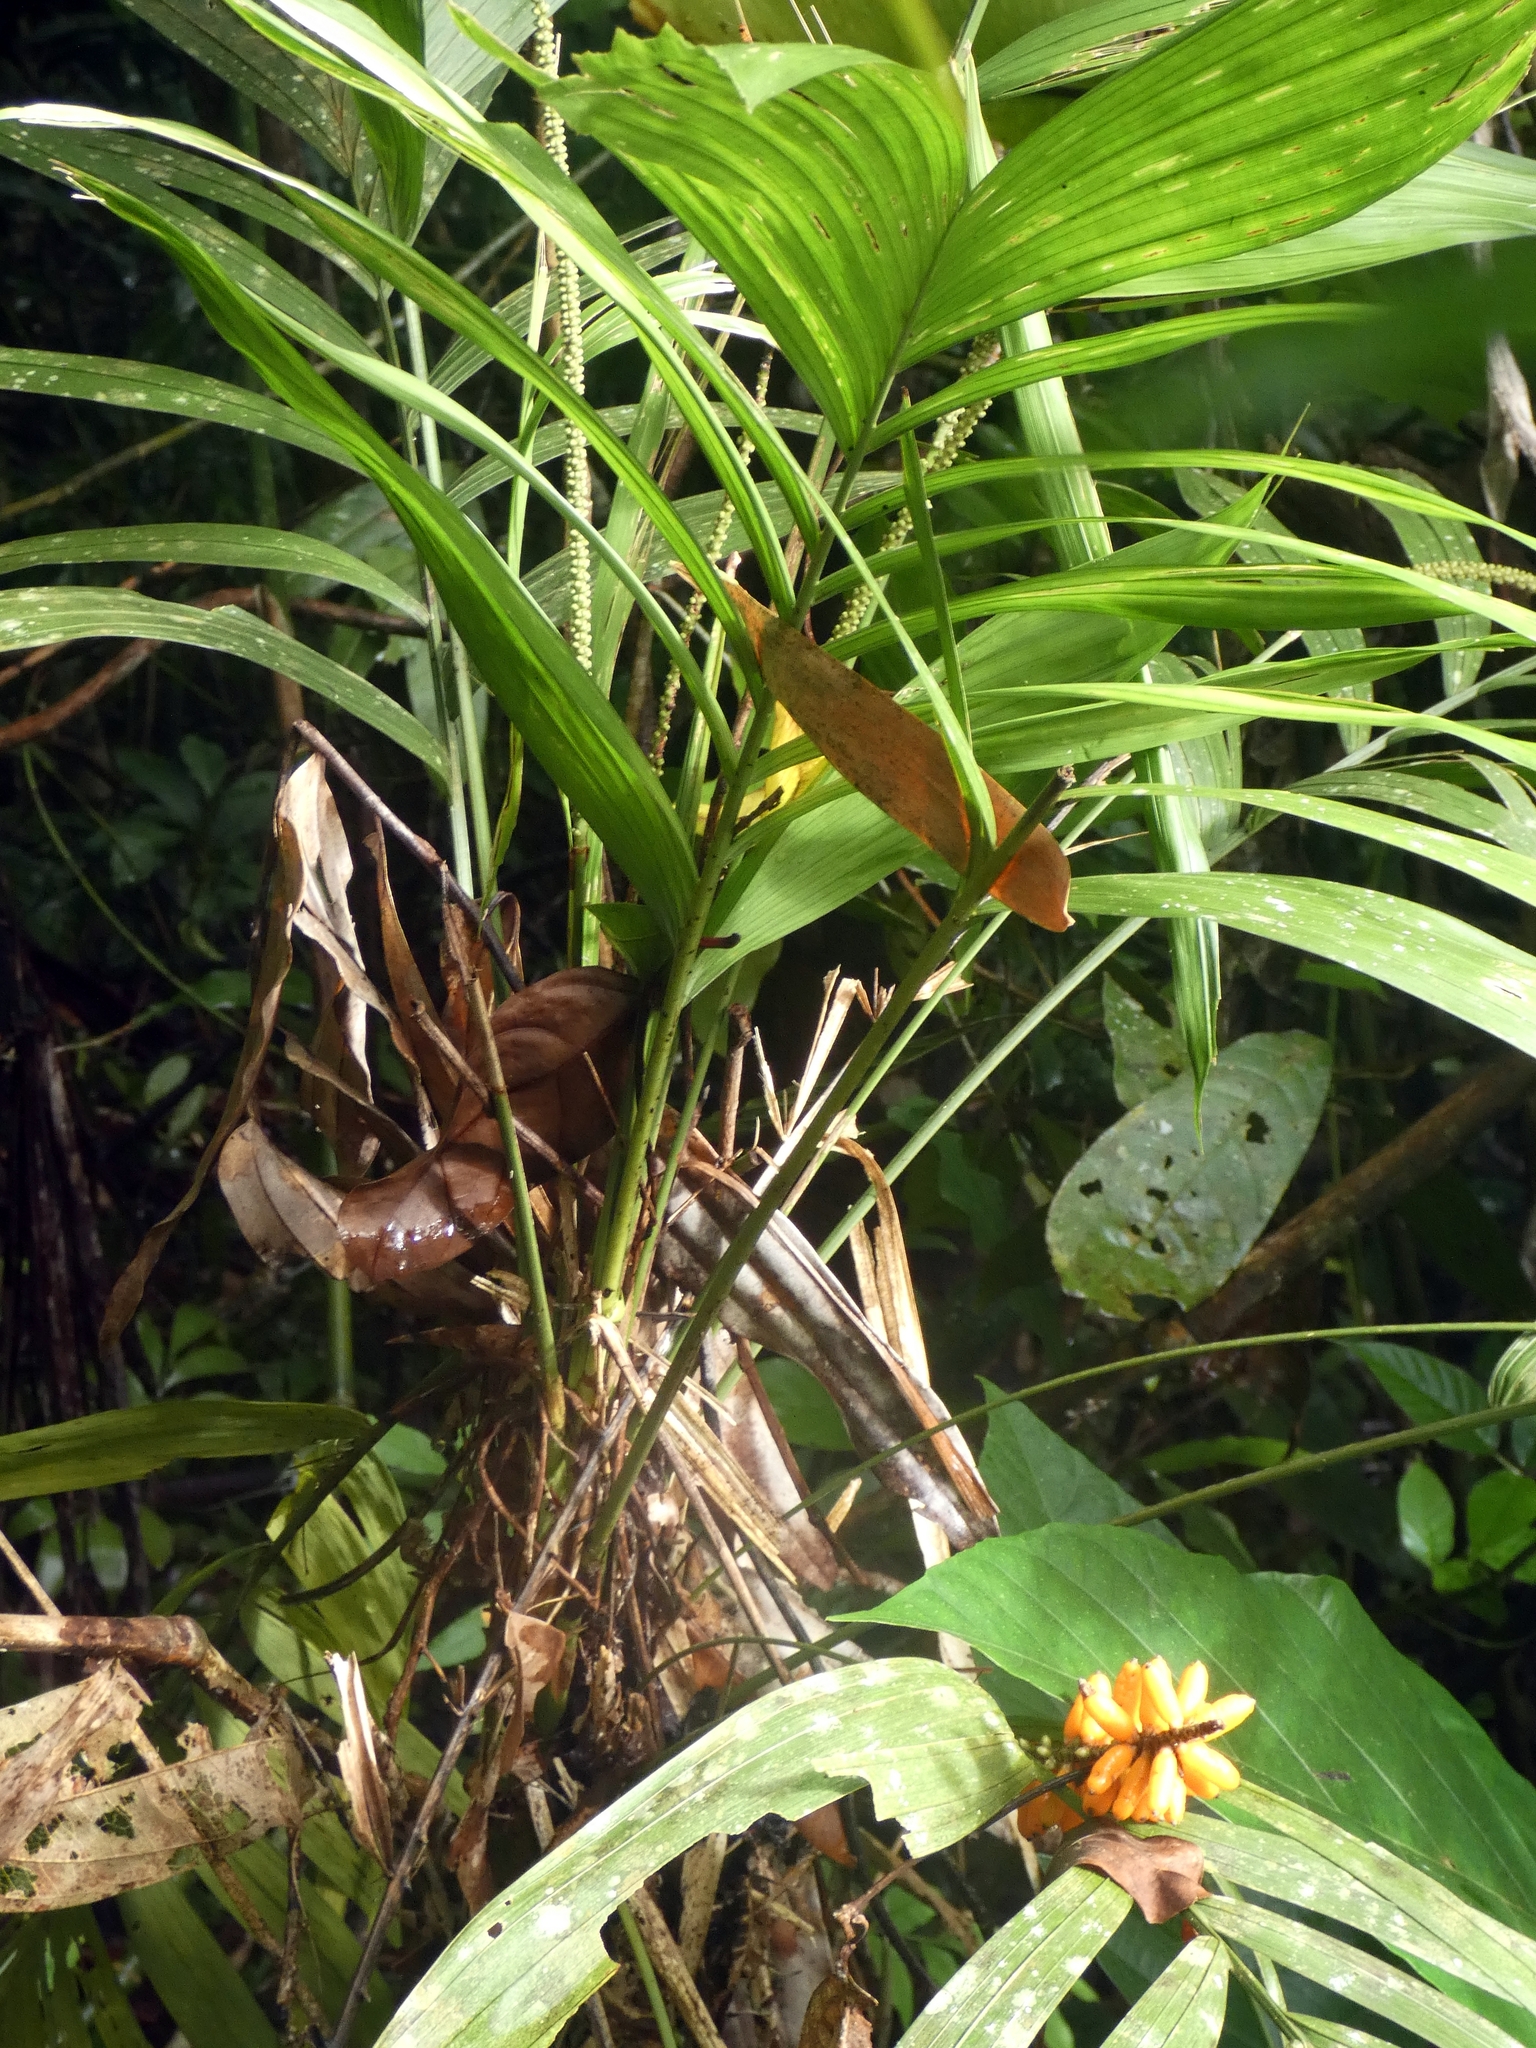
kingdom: Plantae
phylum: Tracheophyta
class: Liliopsida
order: Arecales
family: Arecaceae
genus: Linospadix
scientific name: Linospadix minor
